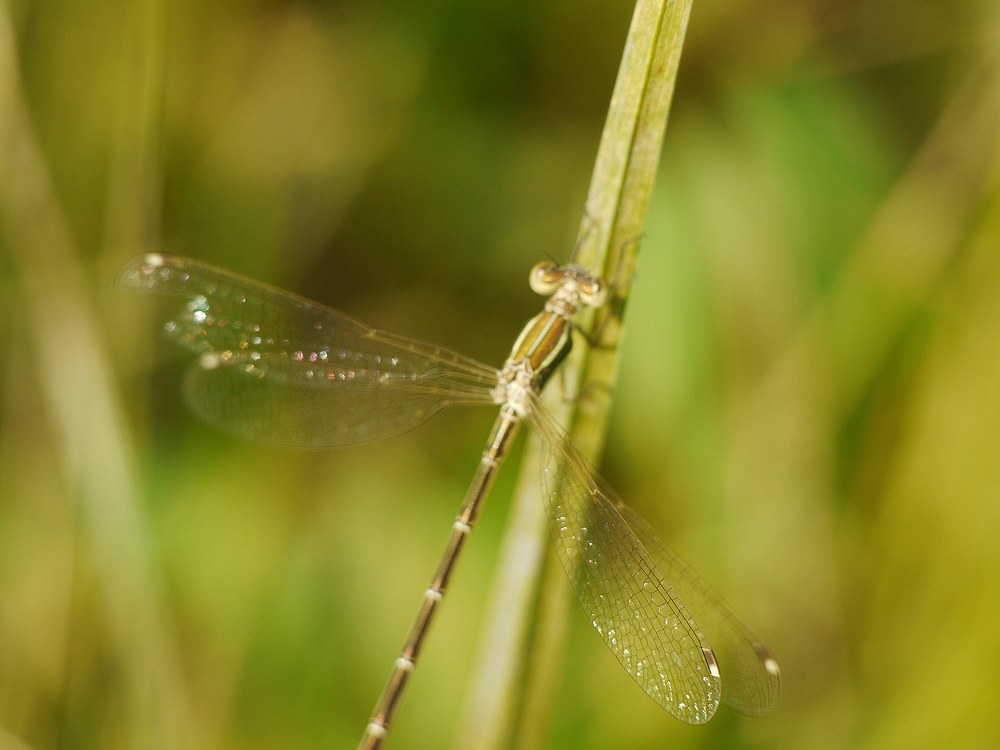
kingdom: Animalia
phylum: Arthropoda
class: Insecta
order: Odonata
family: Lestidae
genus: Lestes
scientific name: Lestes barbarus
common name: Migrant spreadwing
